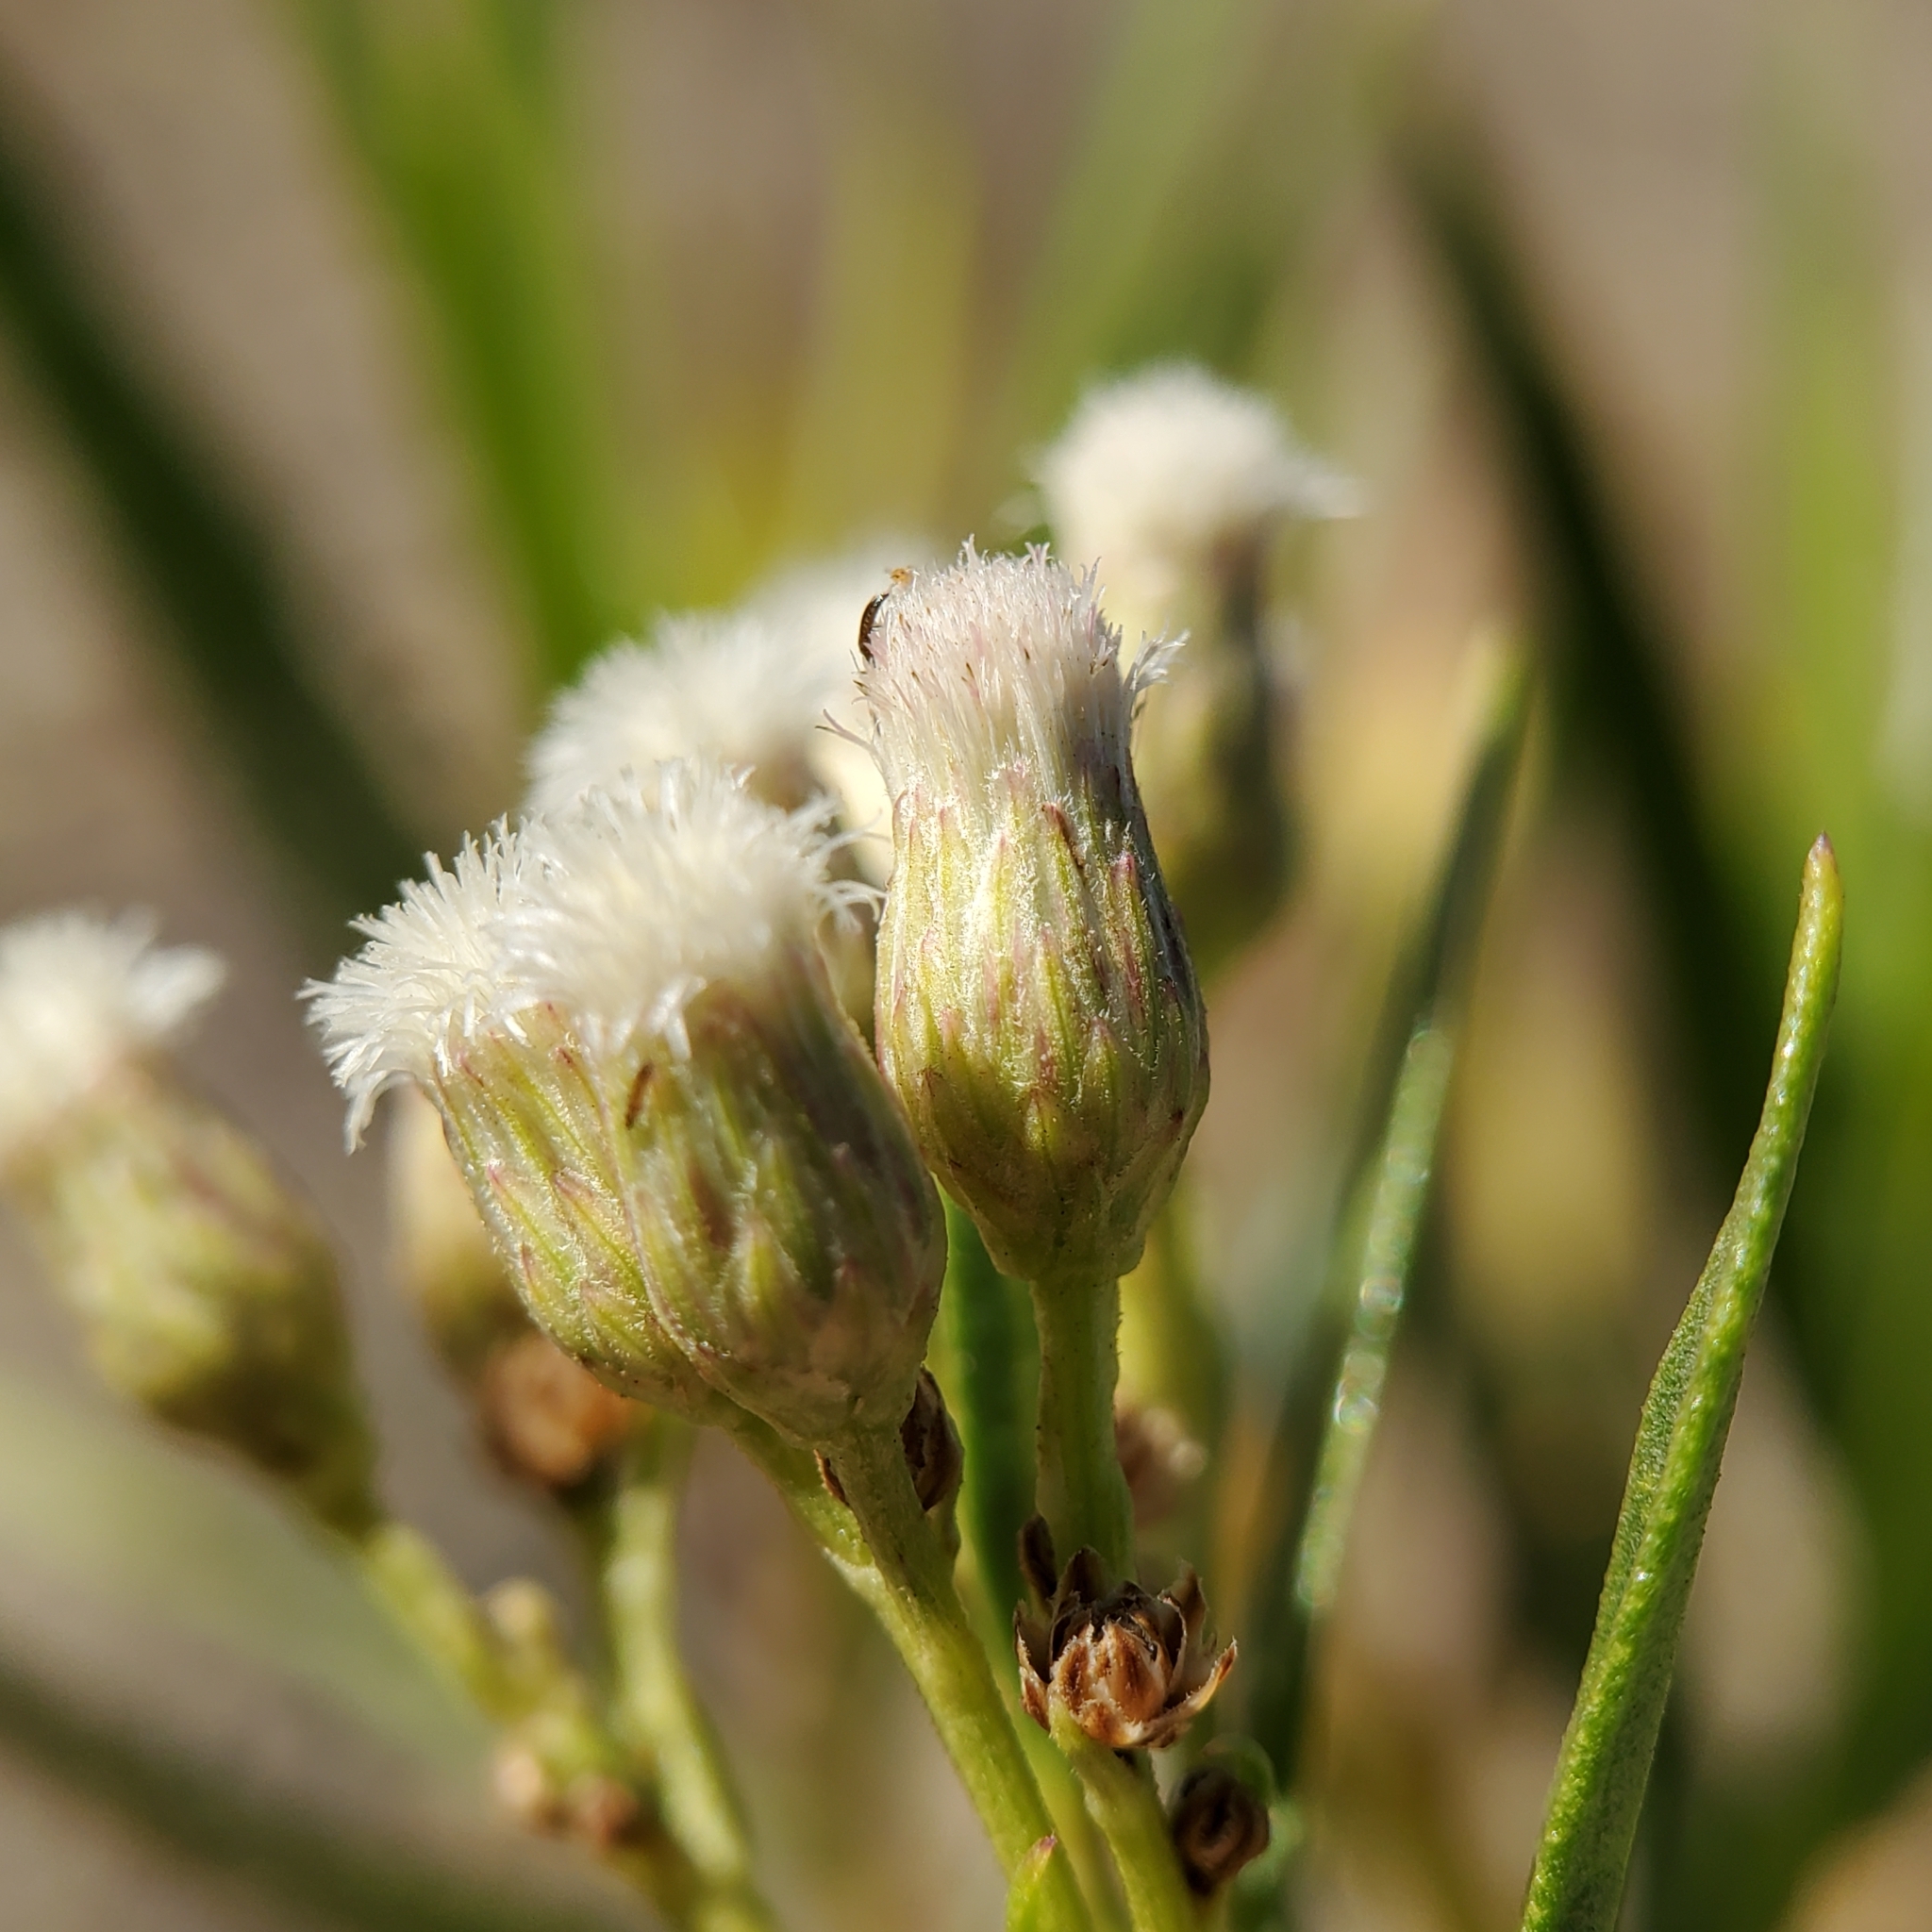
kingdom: Plantae
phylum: Tracheophyta
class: Magnoliopsida
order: Asterales
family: Asteraceae
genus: Baccharis
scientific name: Baccharis salicifolia
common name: Sticky baccharis
